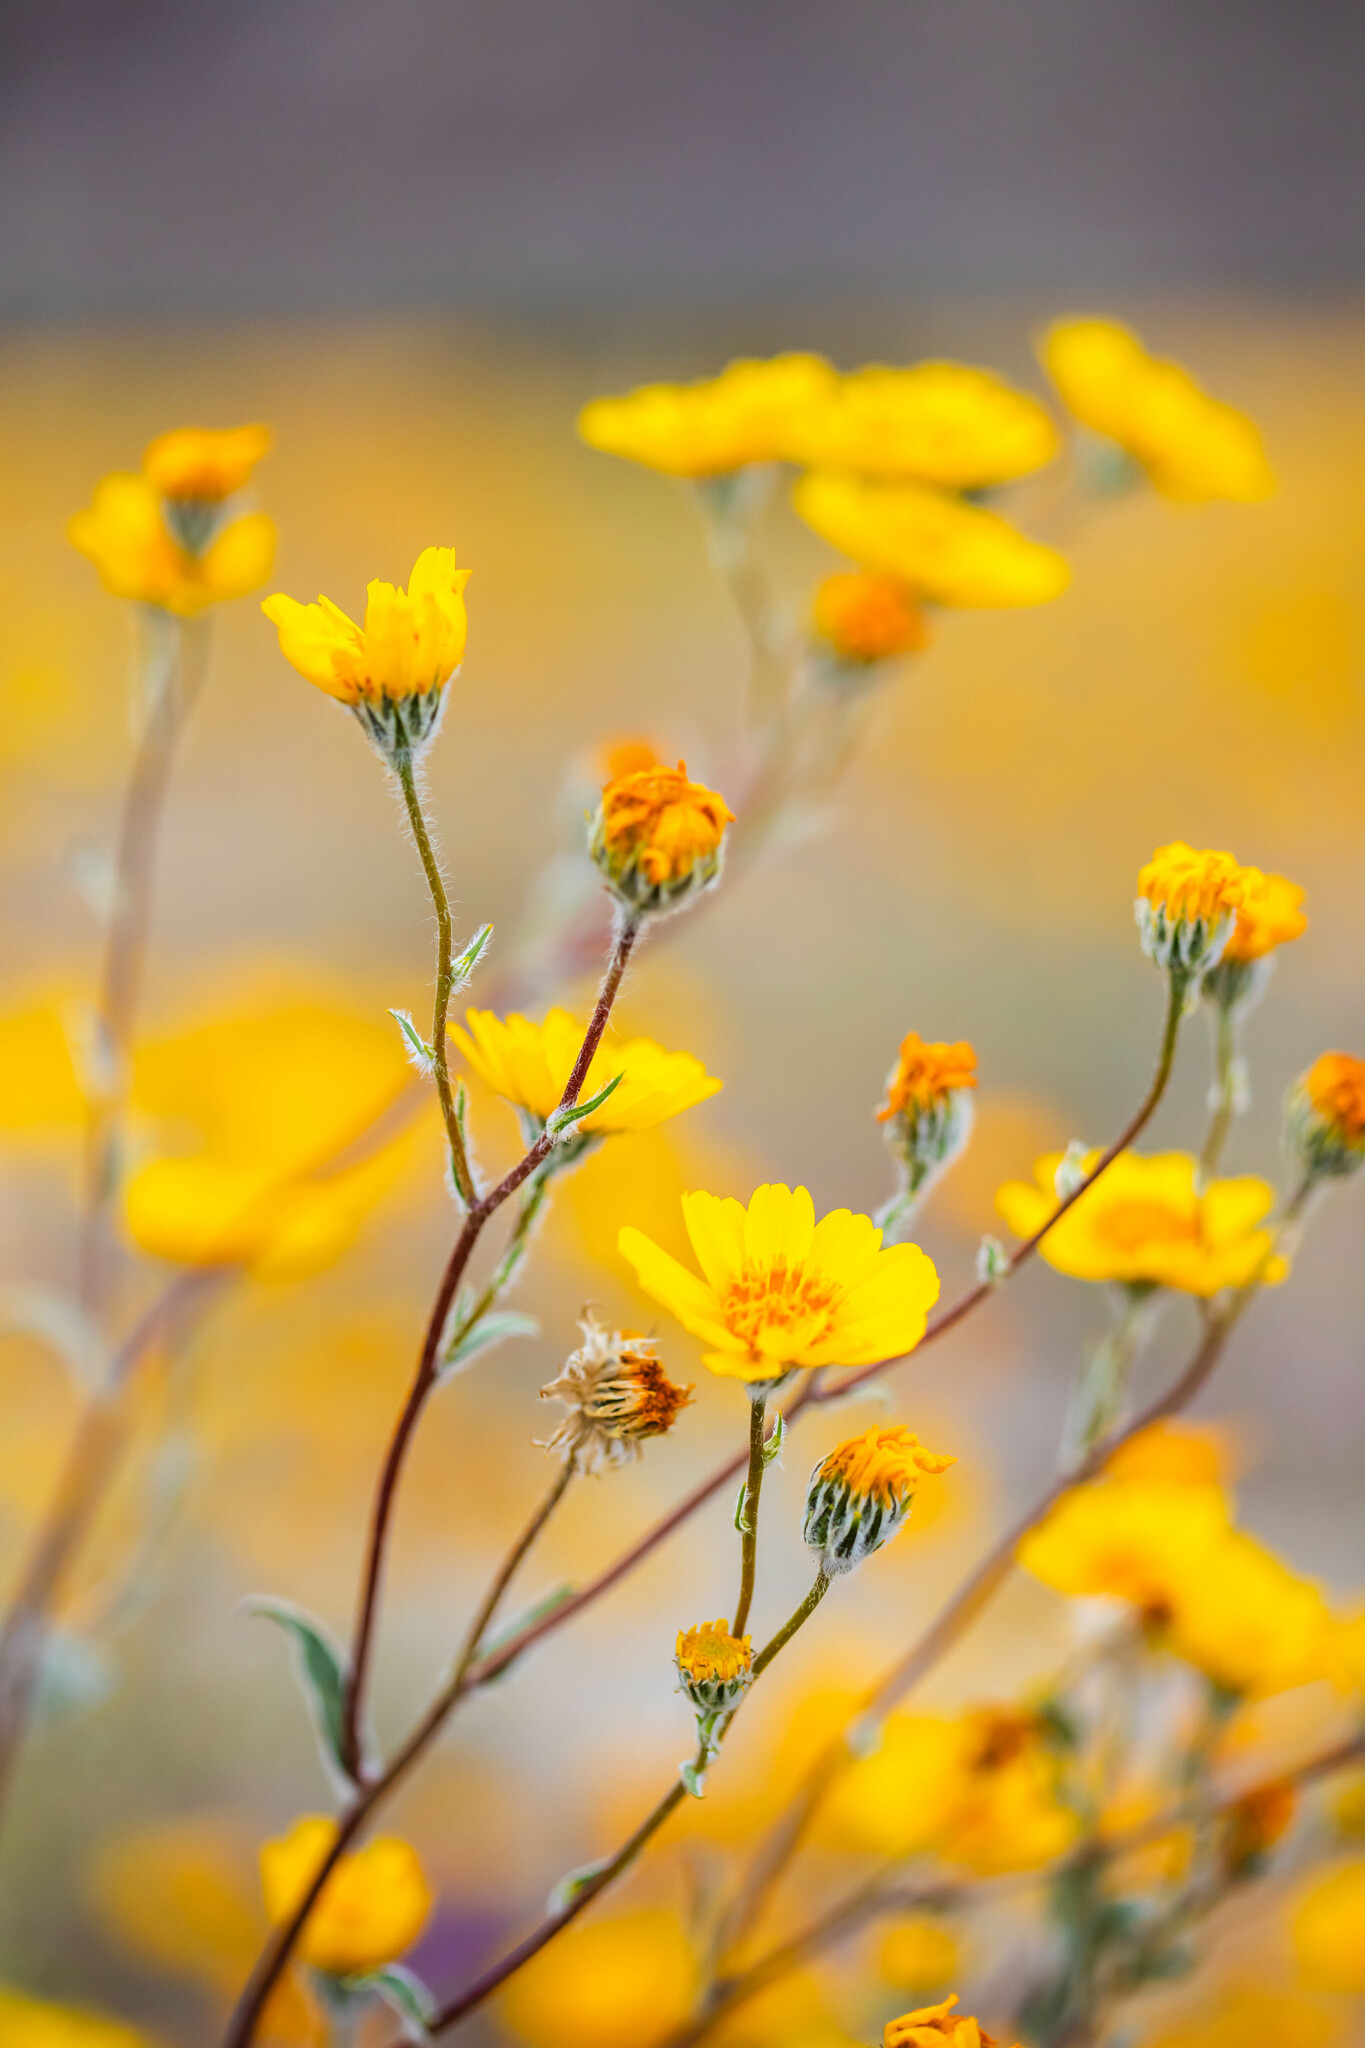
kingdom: Plantae
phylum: Tracheophyta
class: Magnoliopsida
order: Asterales
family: Asteraceae
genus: Geraea
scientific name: Geraea canescens
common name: Desert-gold
